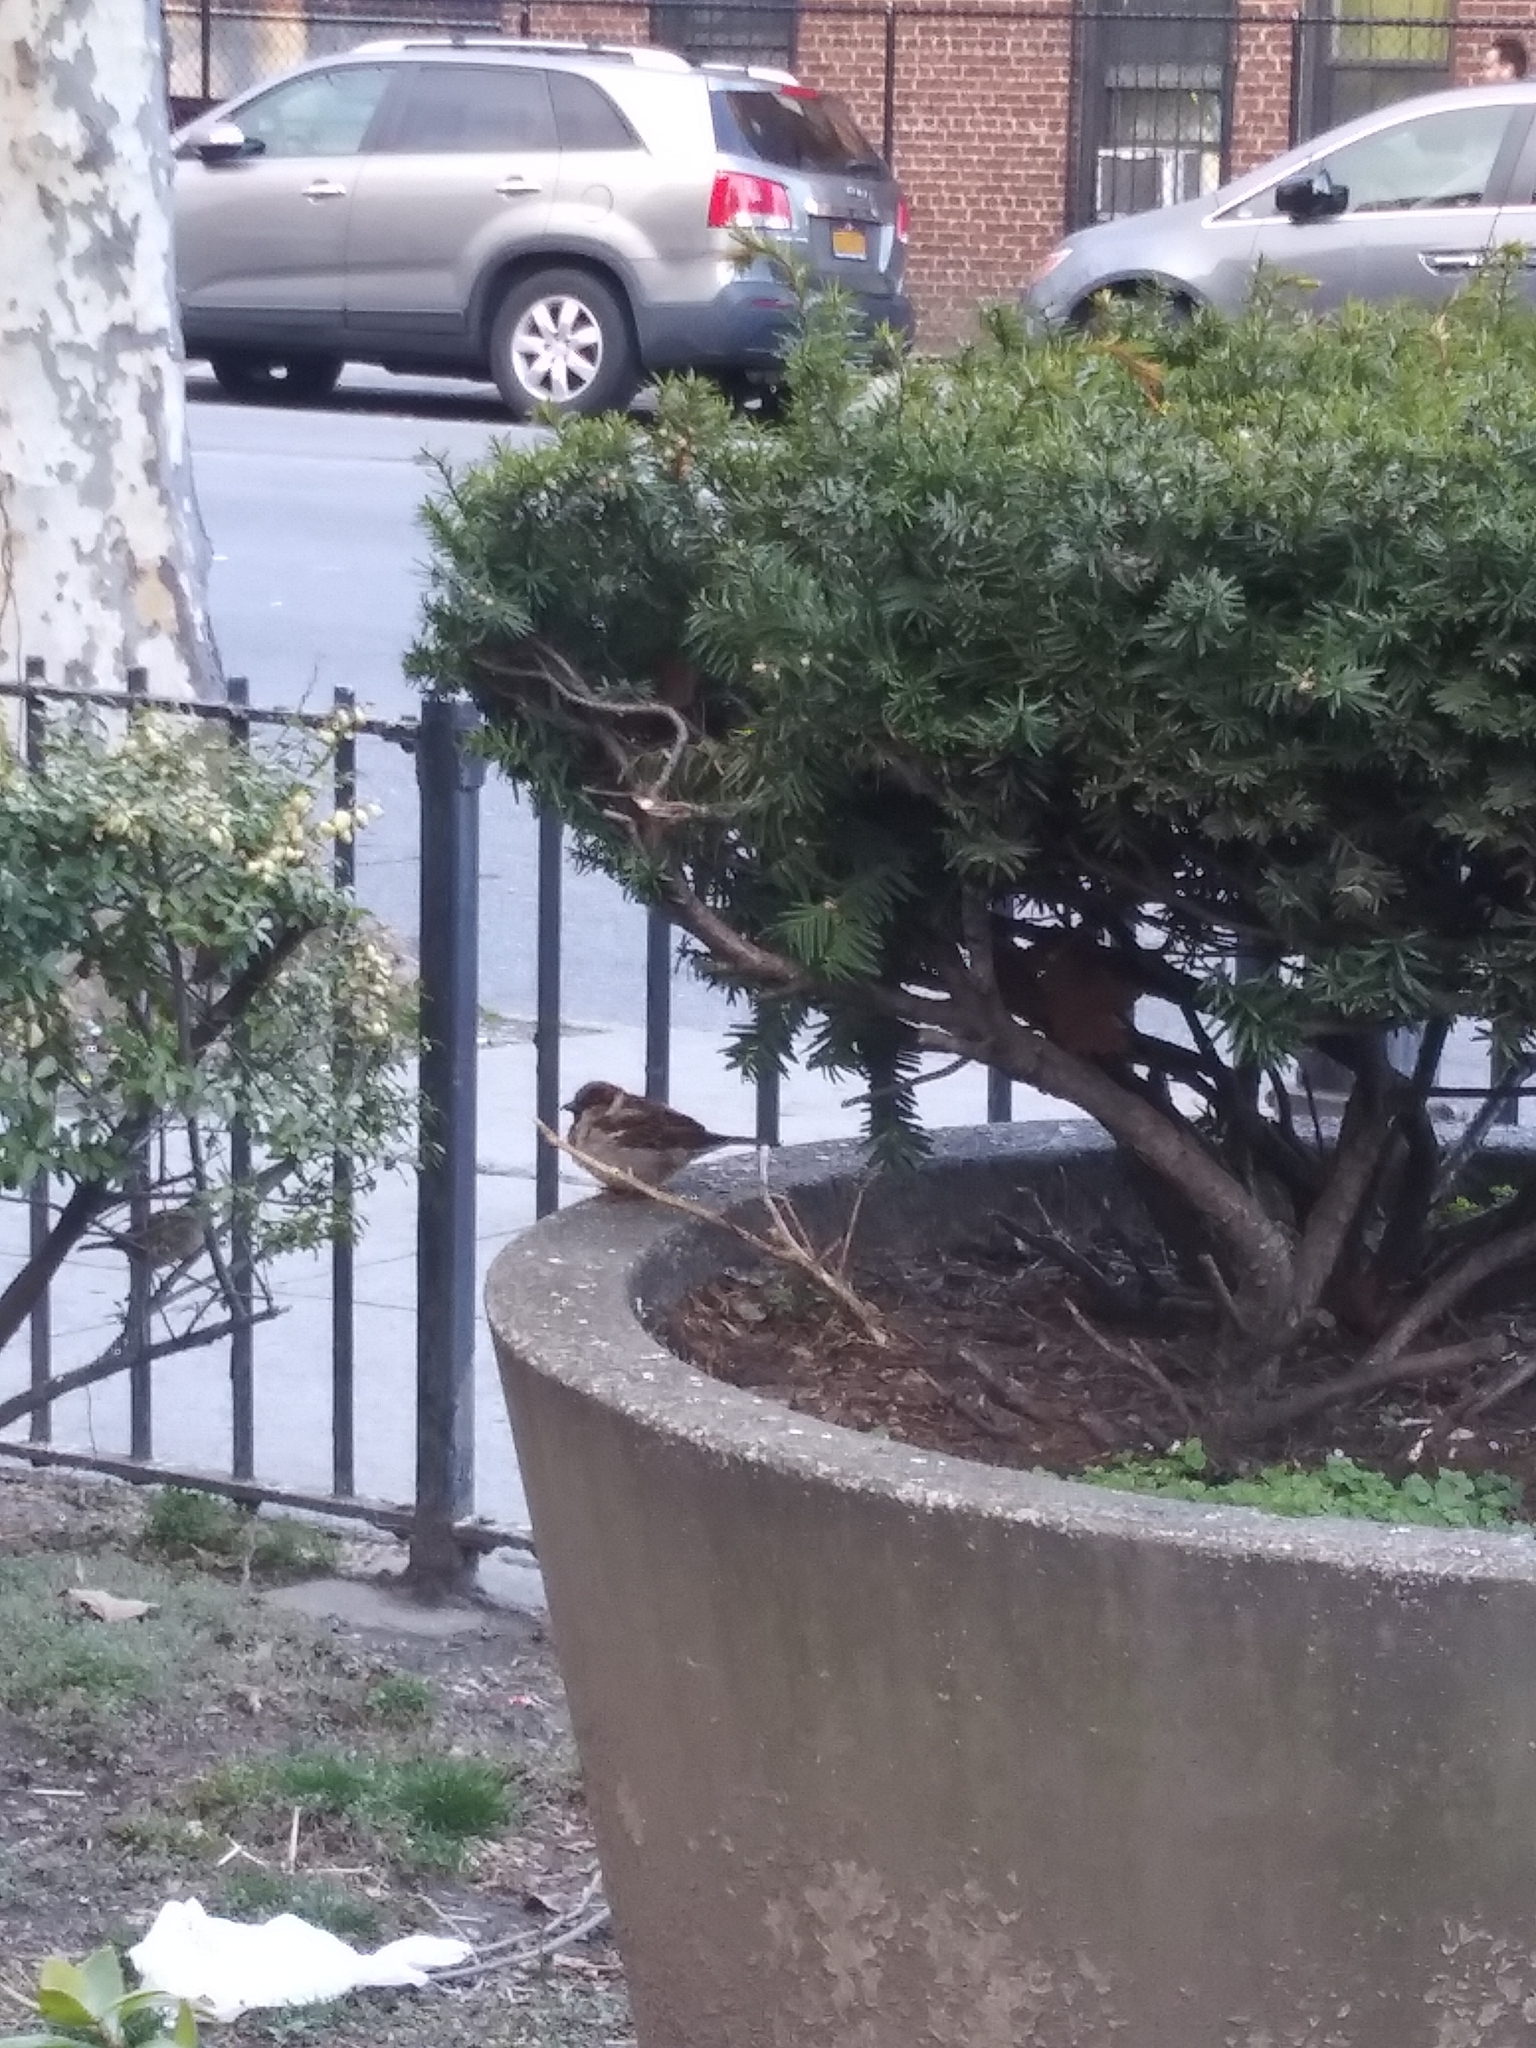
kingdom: Animalia
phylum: Chordata
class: Aves
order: Passeriformes
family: Passeridae
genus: Passer
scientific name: Passer domesticus
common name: House sparrow
